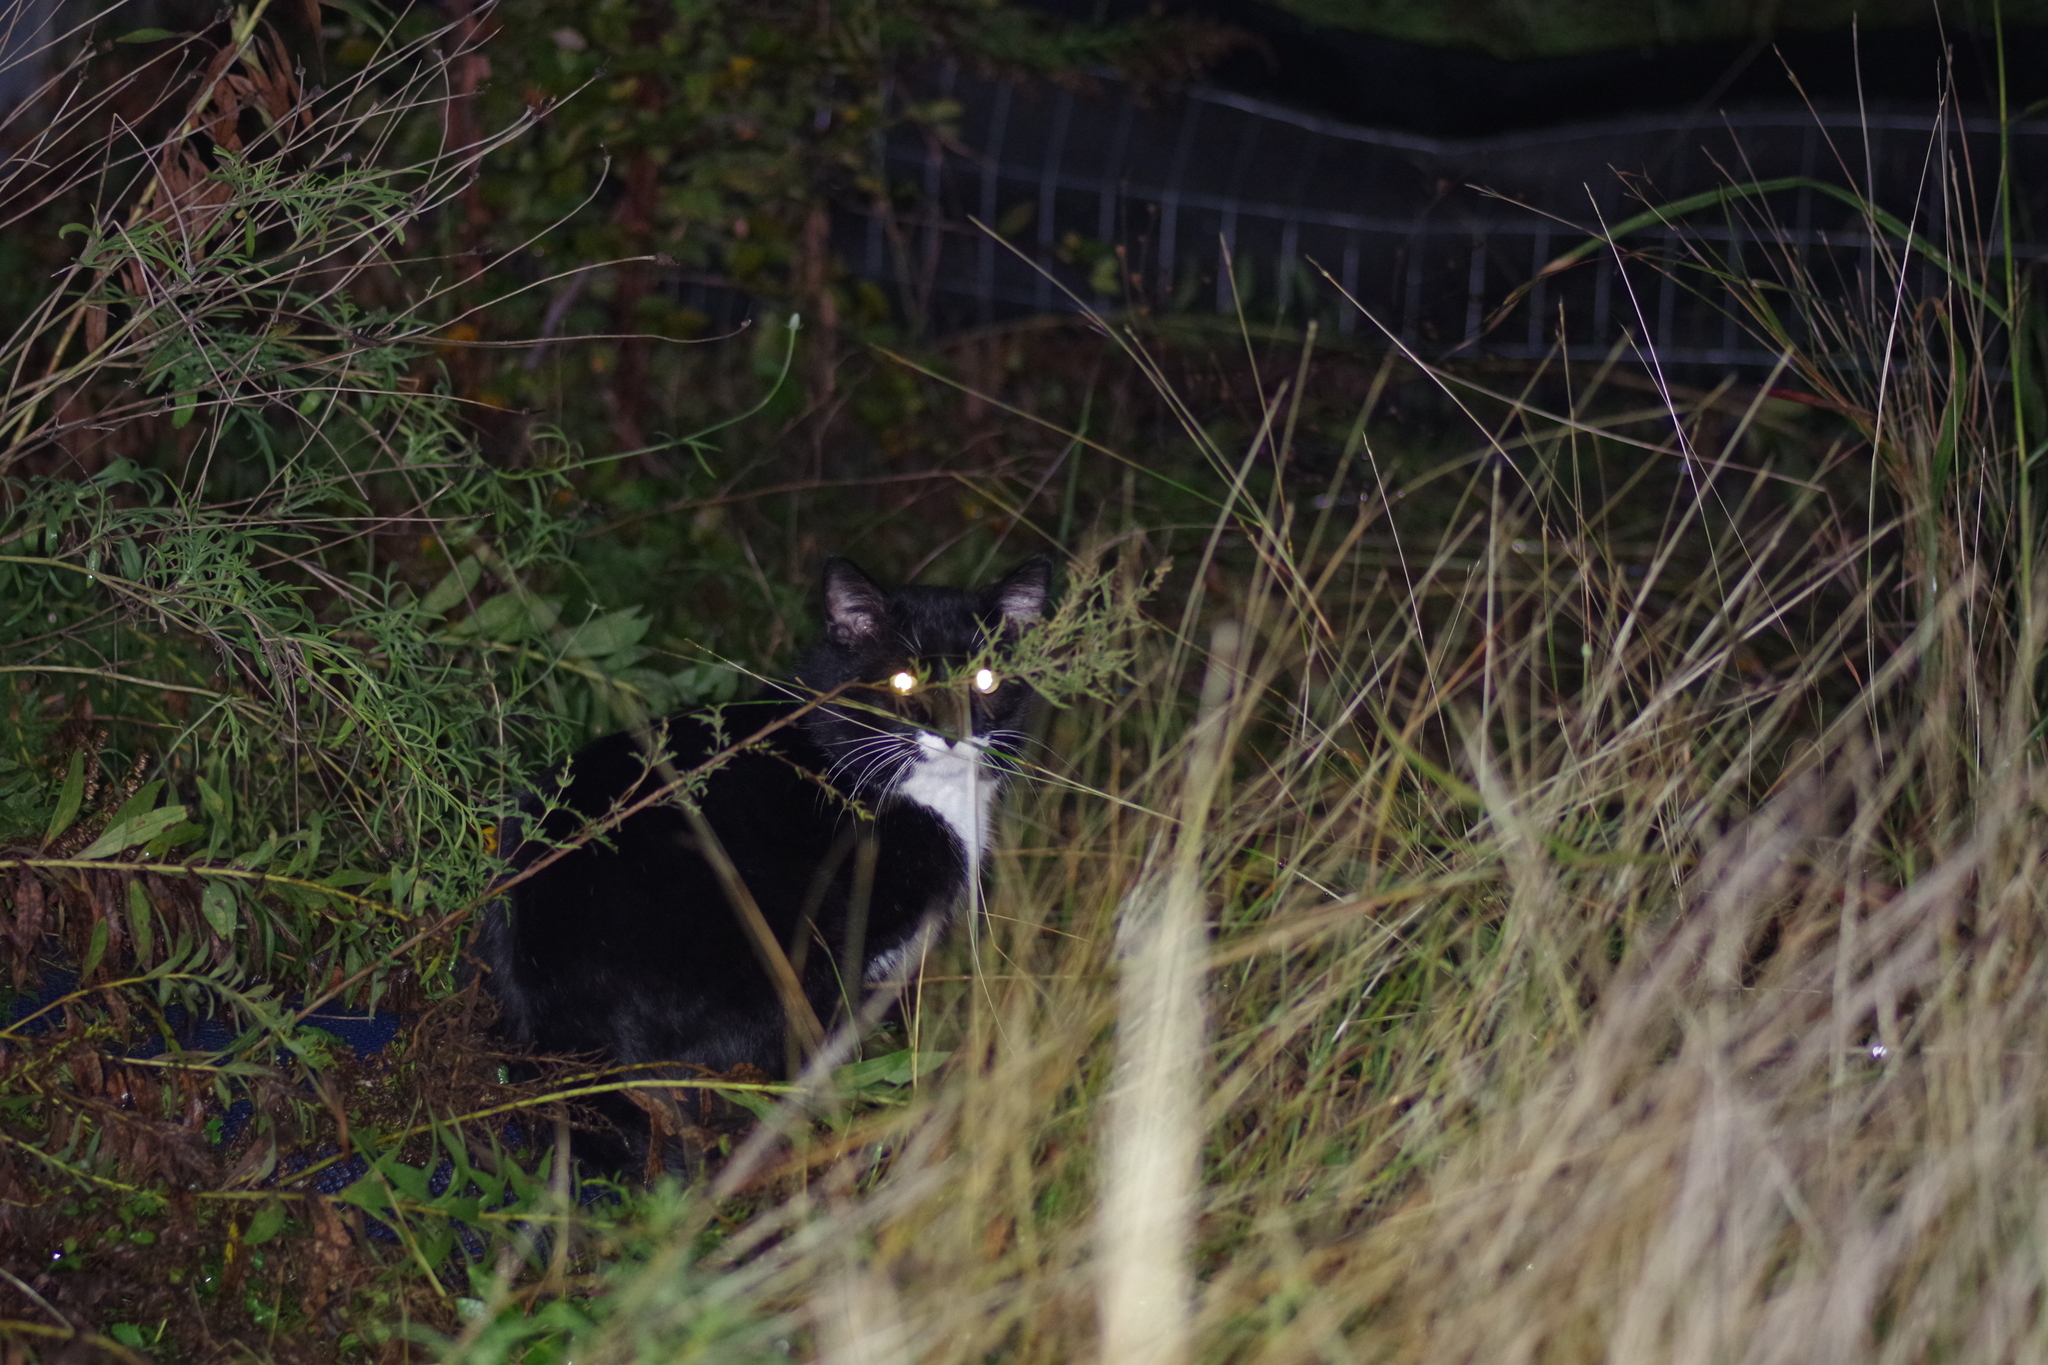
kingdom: Animalia
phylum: Chordata
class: Mammalia
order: Carnivora
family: Felidae
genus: Felis
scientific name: Felis catus
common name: Domestic cat
